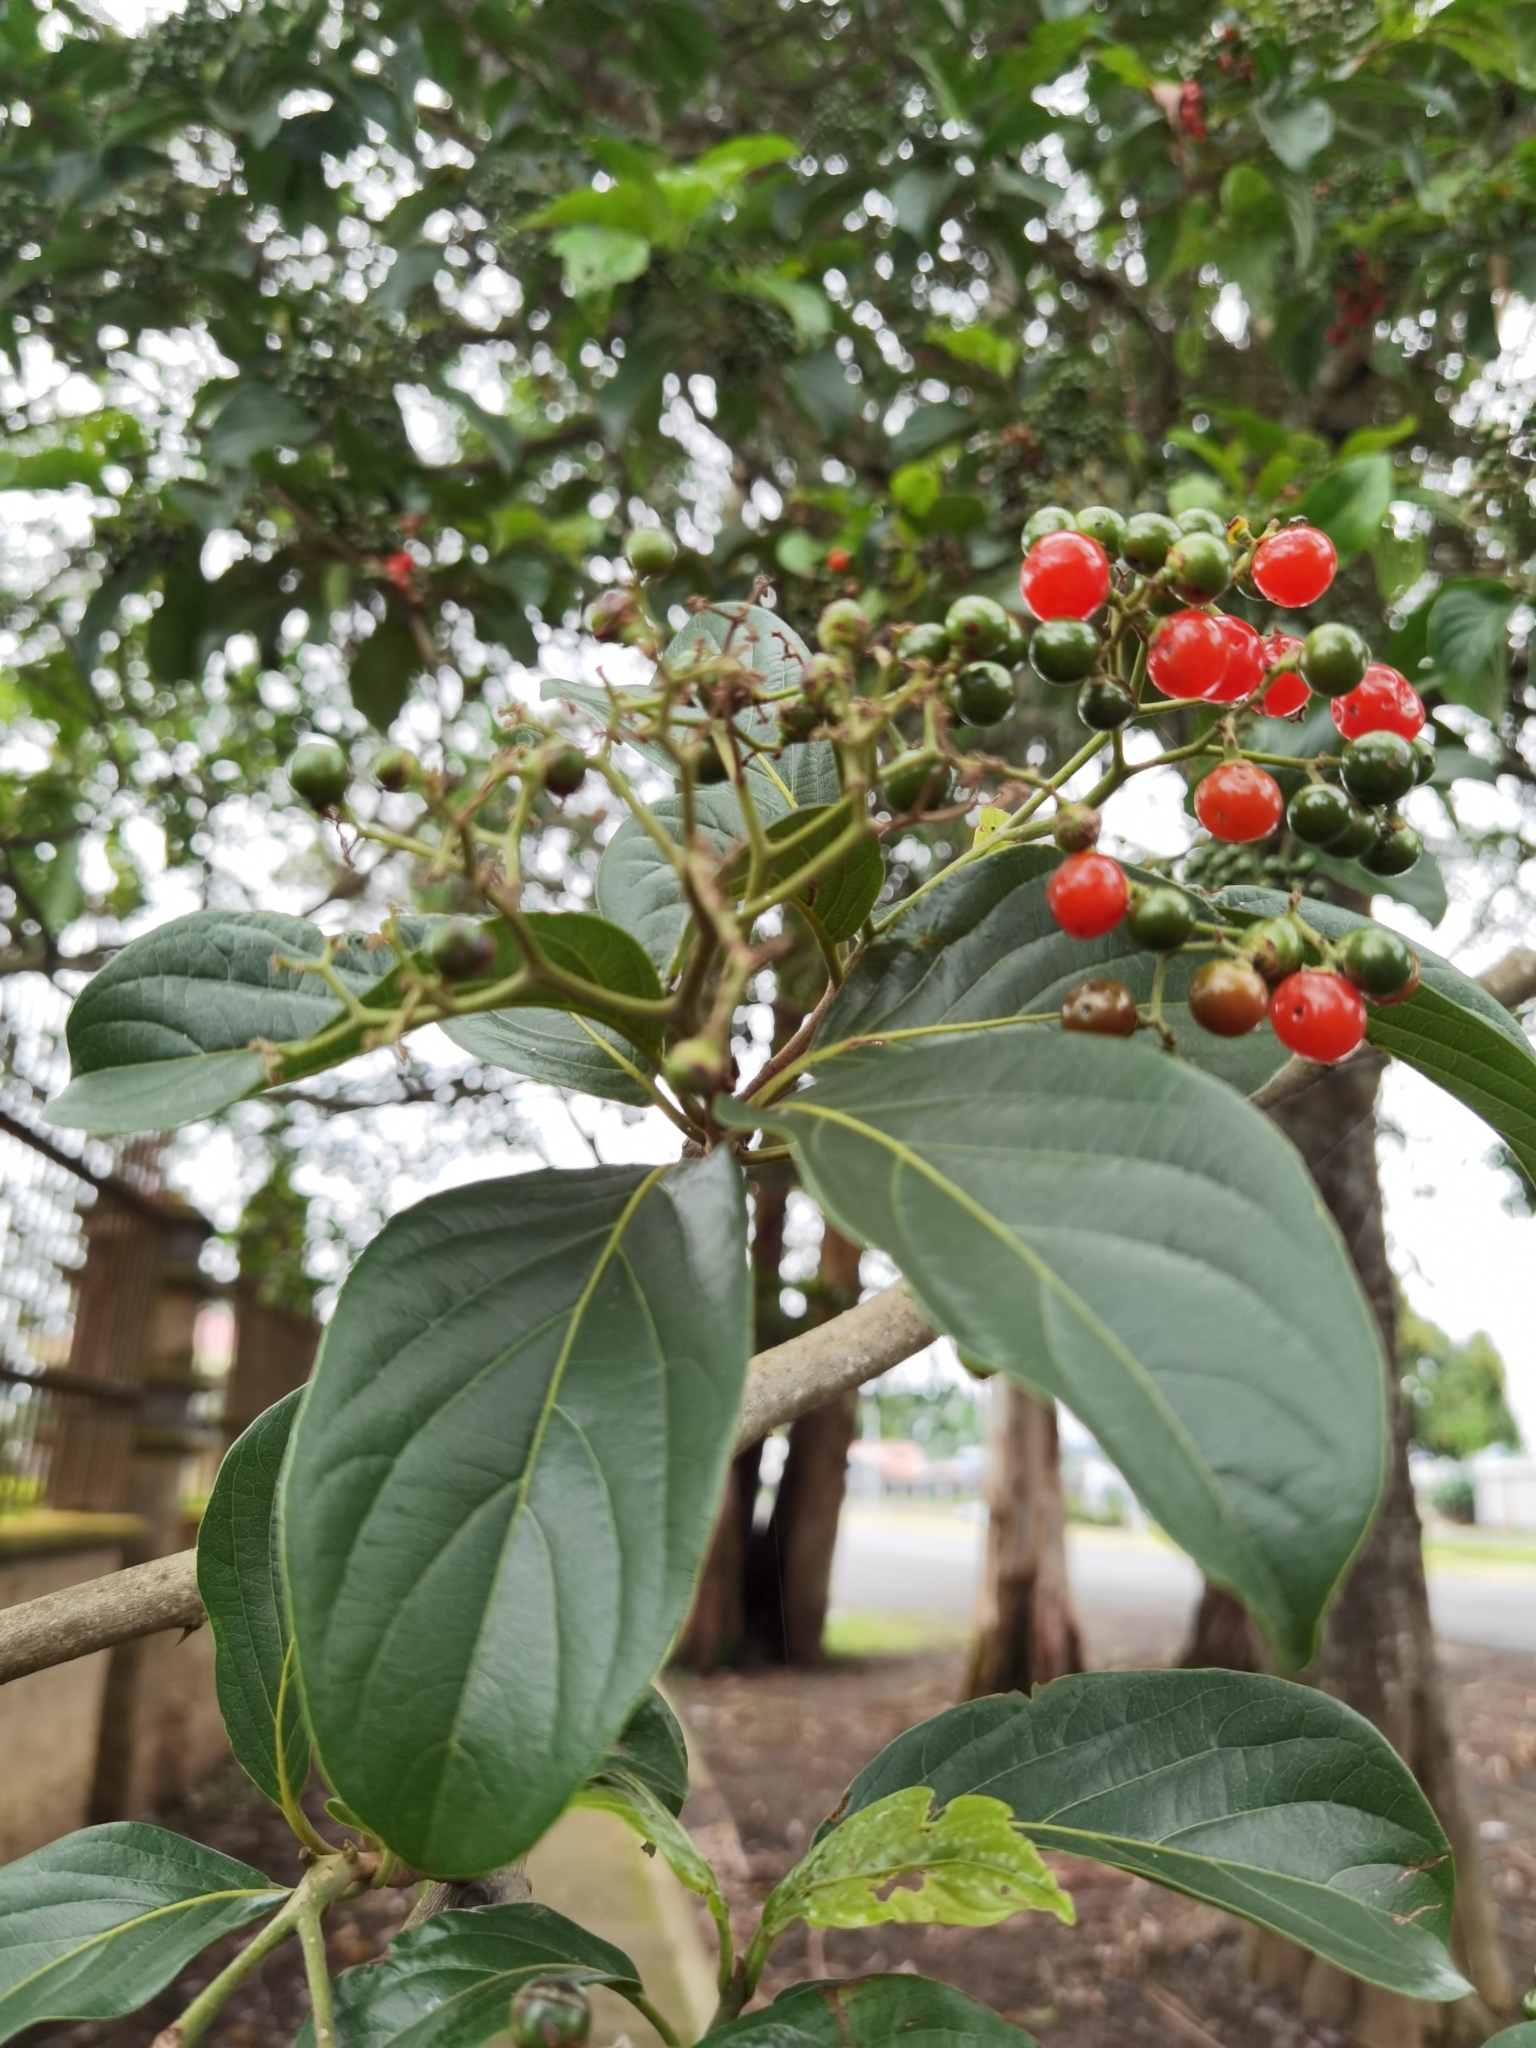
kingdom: Plantae
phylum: Tracheophyta
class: Magnoliopsida
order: Boraginales
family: Cordiaceae
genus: Cordia
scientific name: Cordia eriostigma
